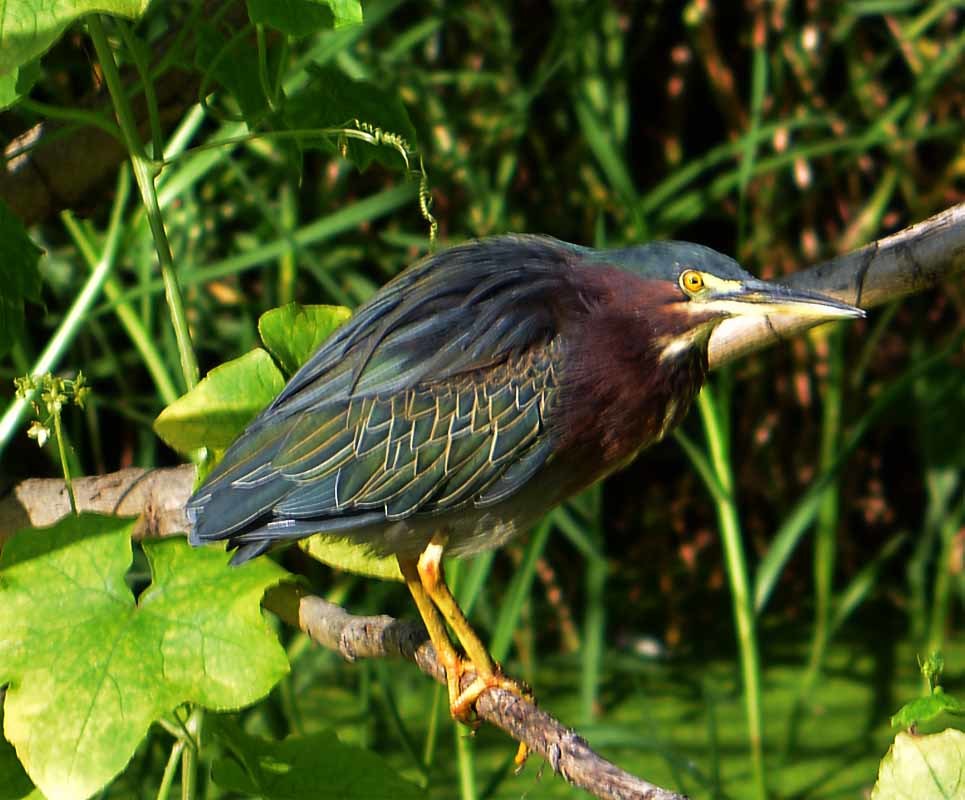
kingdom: Animalia
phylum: Chordata
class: Aves
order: Pelecaniformes
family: Ardeidae
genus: Butorides
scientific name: Butorides virescens
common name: Green heron
